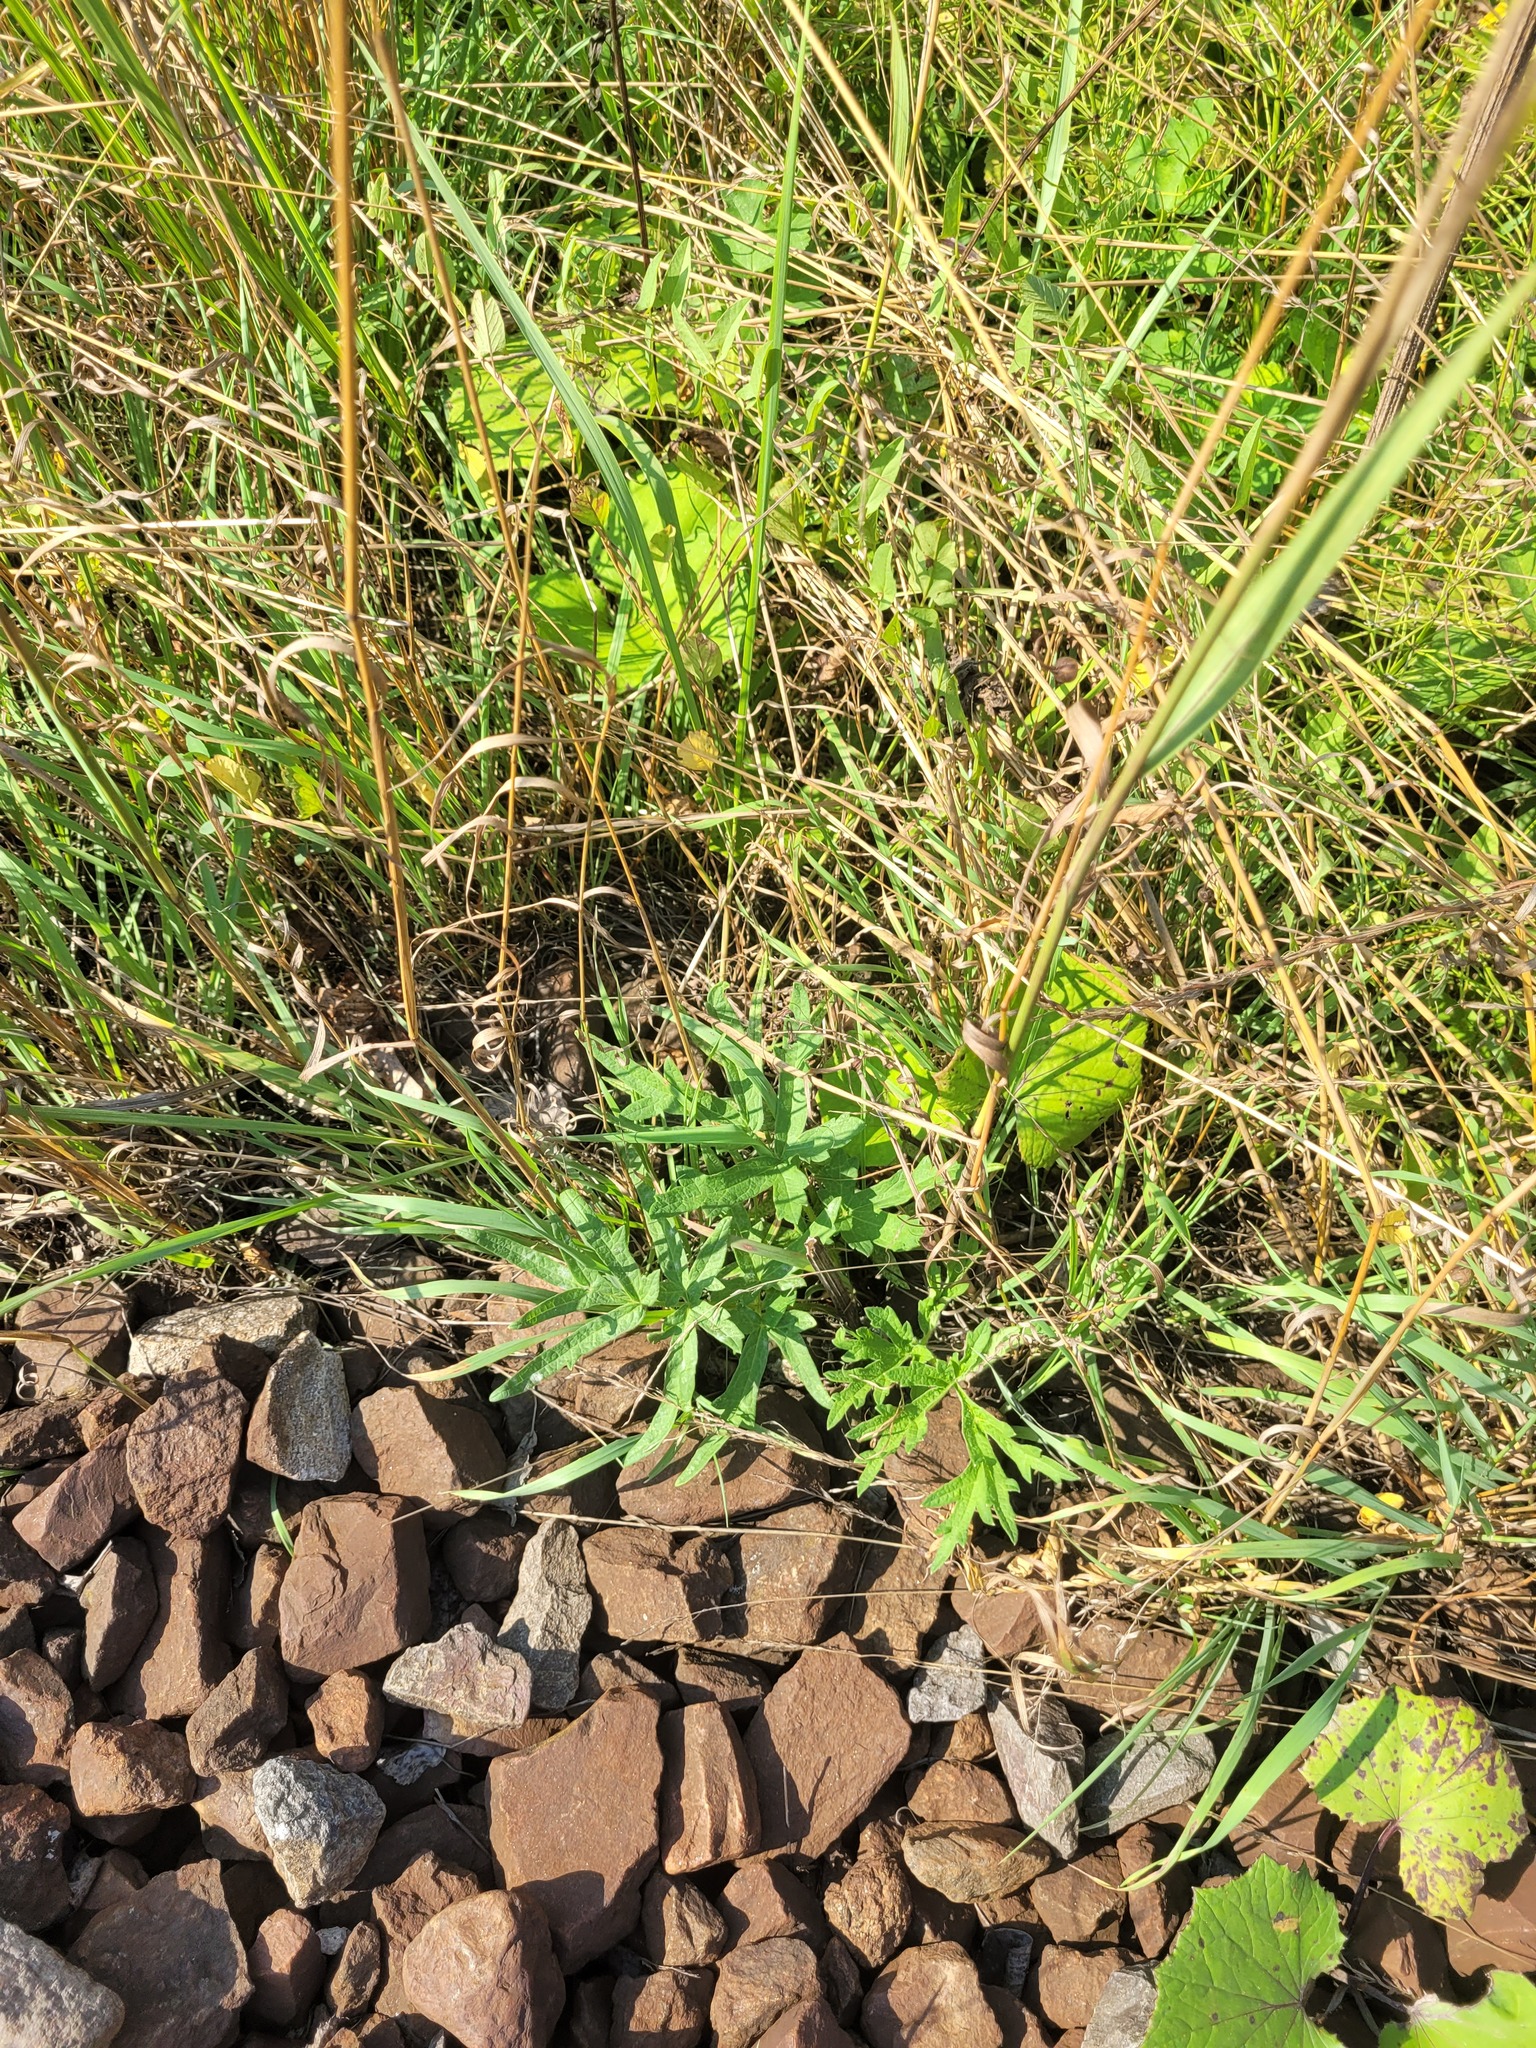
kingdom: Plantae
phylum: Tracheophyta
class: Magnoliopsida
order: Apiales
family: Apiaceae
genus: Heracleum
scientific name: Heracleum sphondylium
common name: Hogweed
